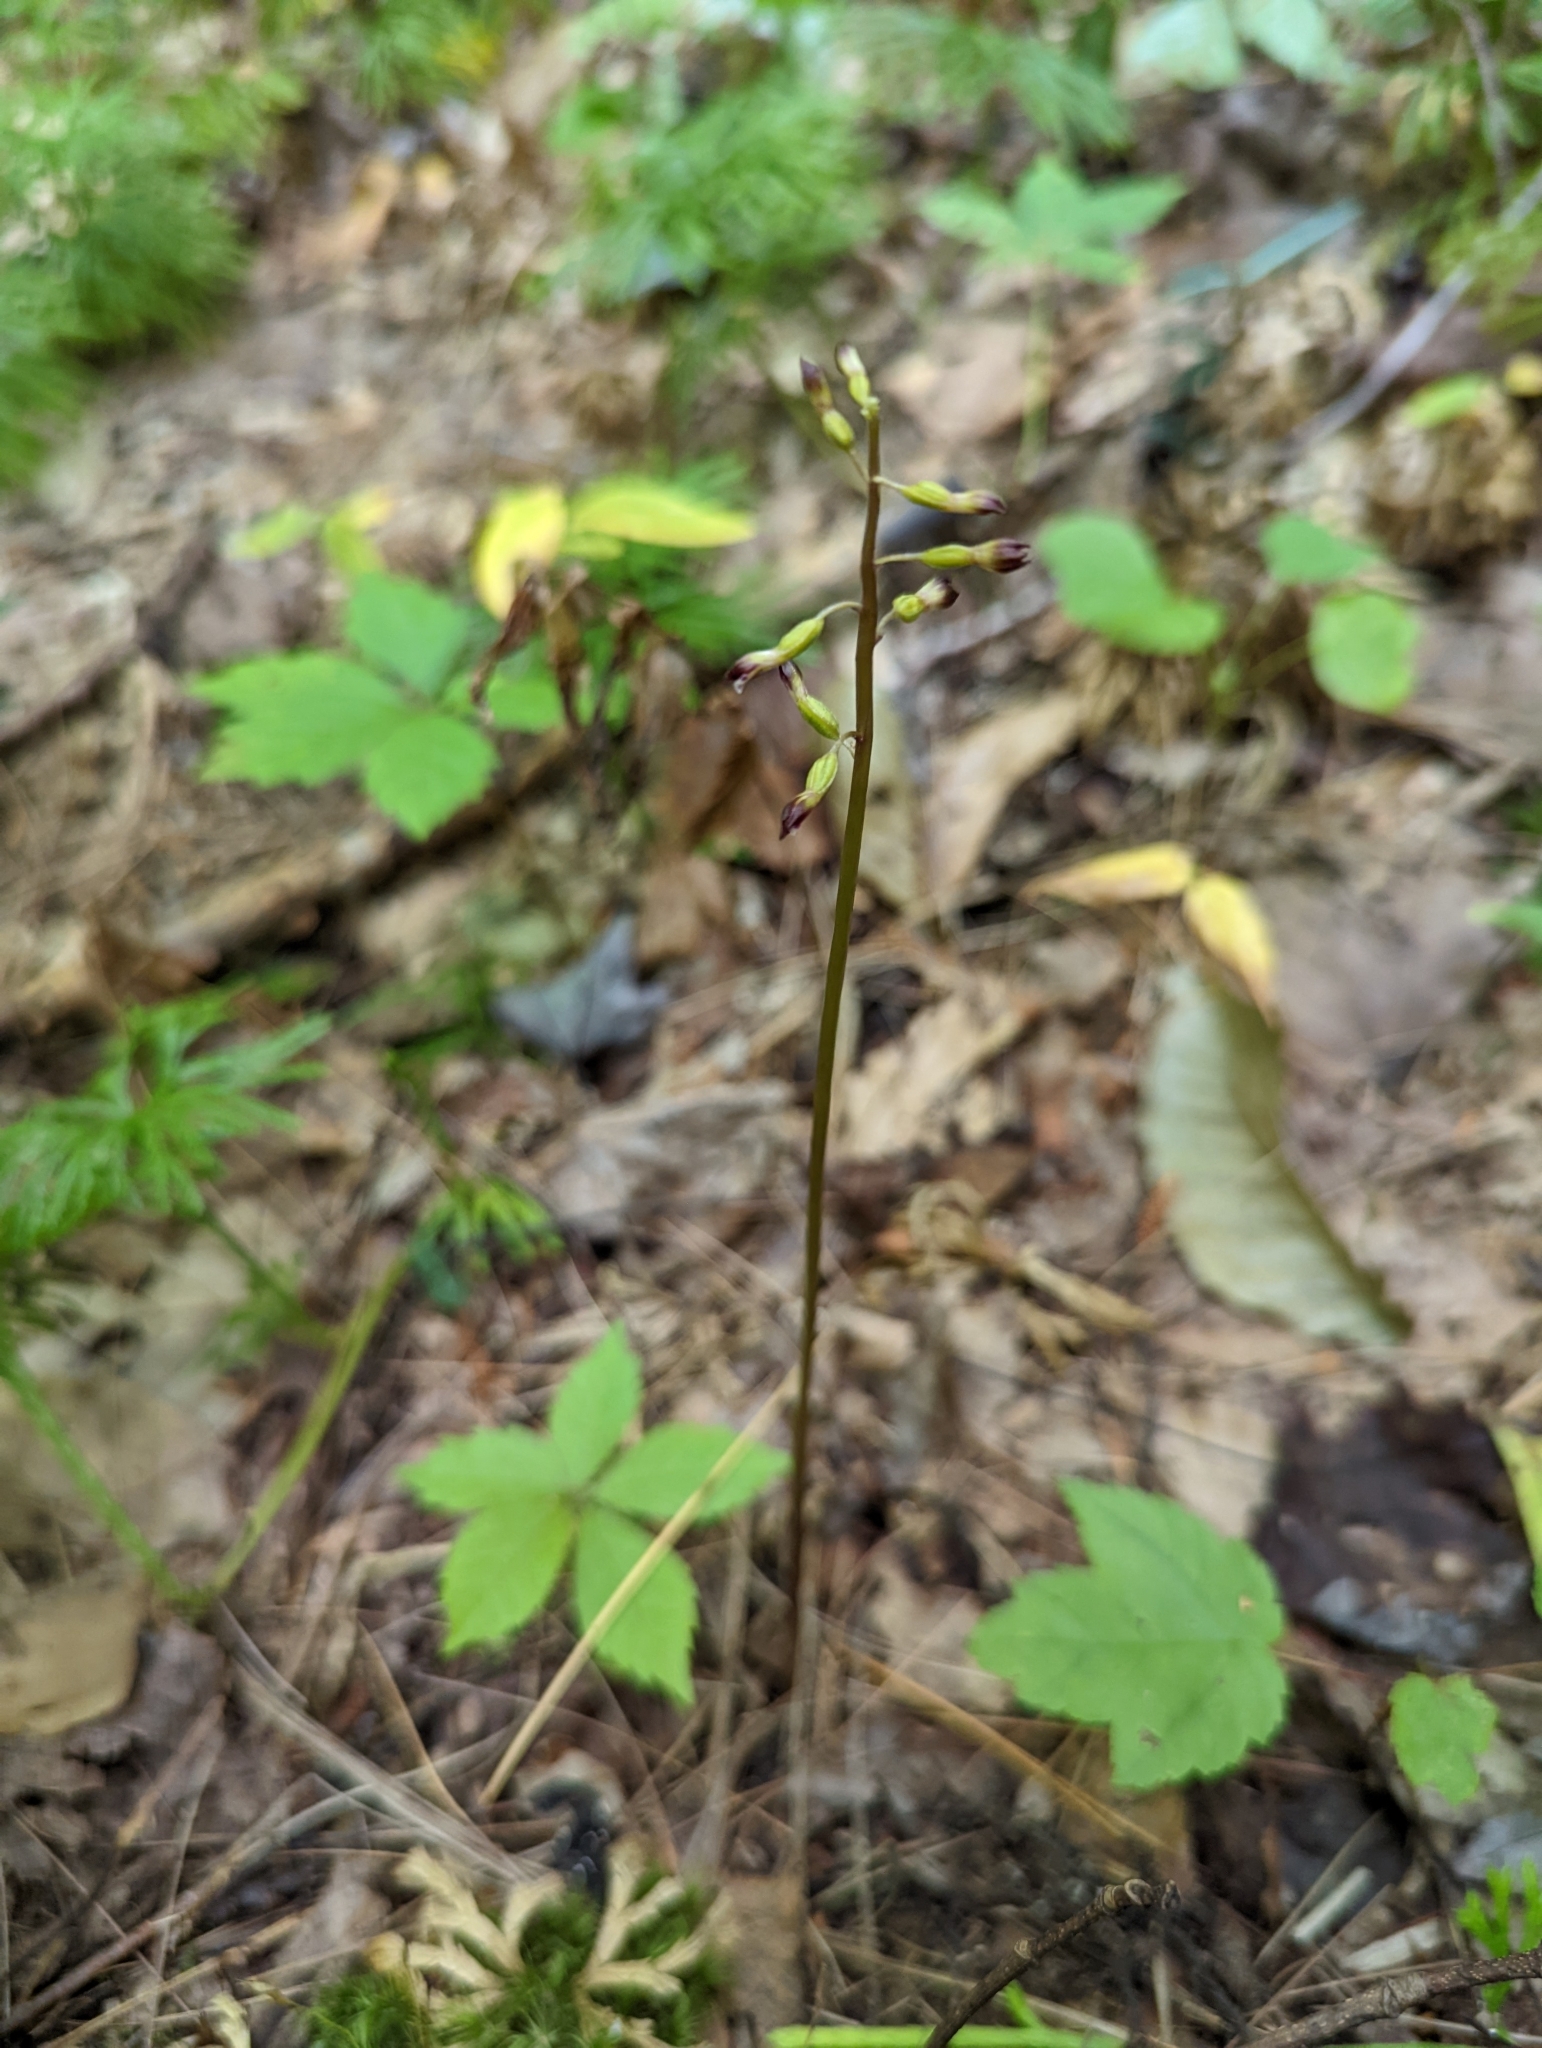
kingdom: Plantae
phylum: Tracheophyta
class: Liliopsida
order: Asparagales
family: Orchidaceae
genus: Corallorhiza
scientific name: Corallorhiza odontorhiza
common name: Autumn coralroot
